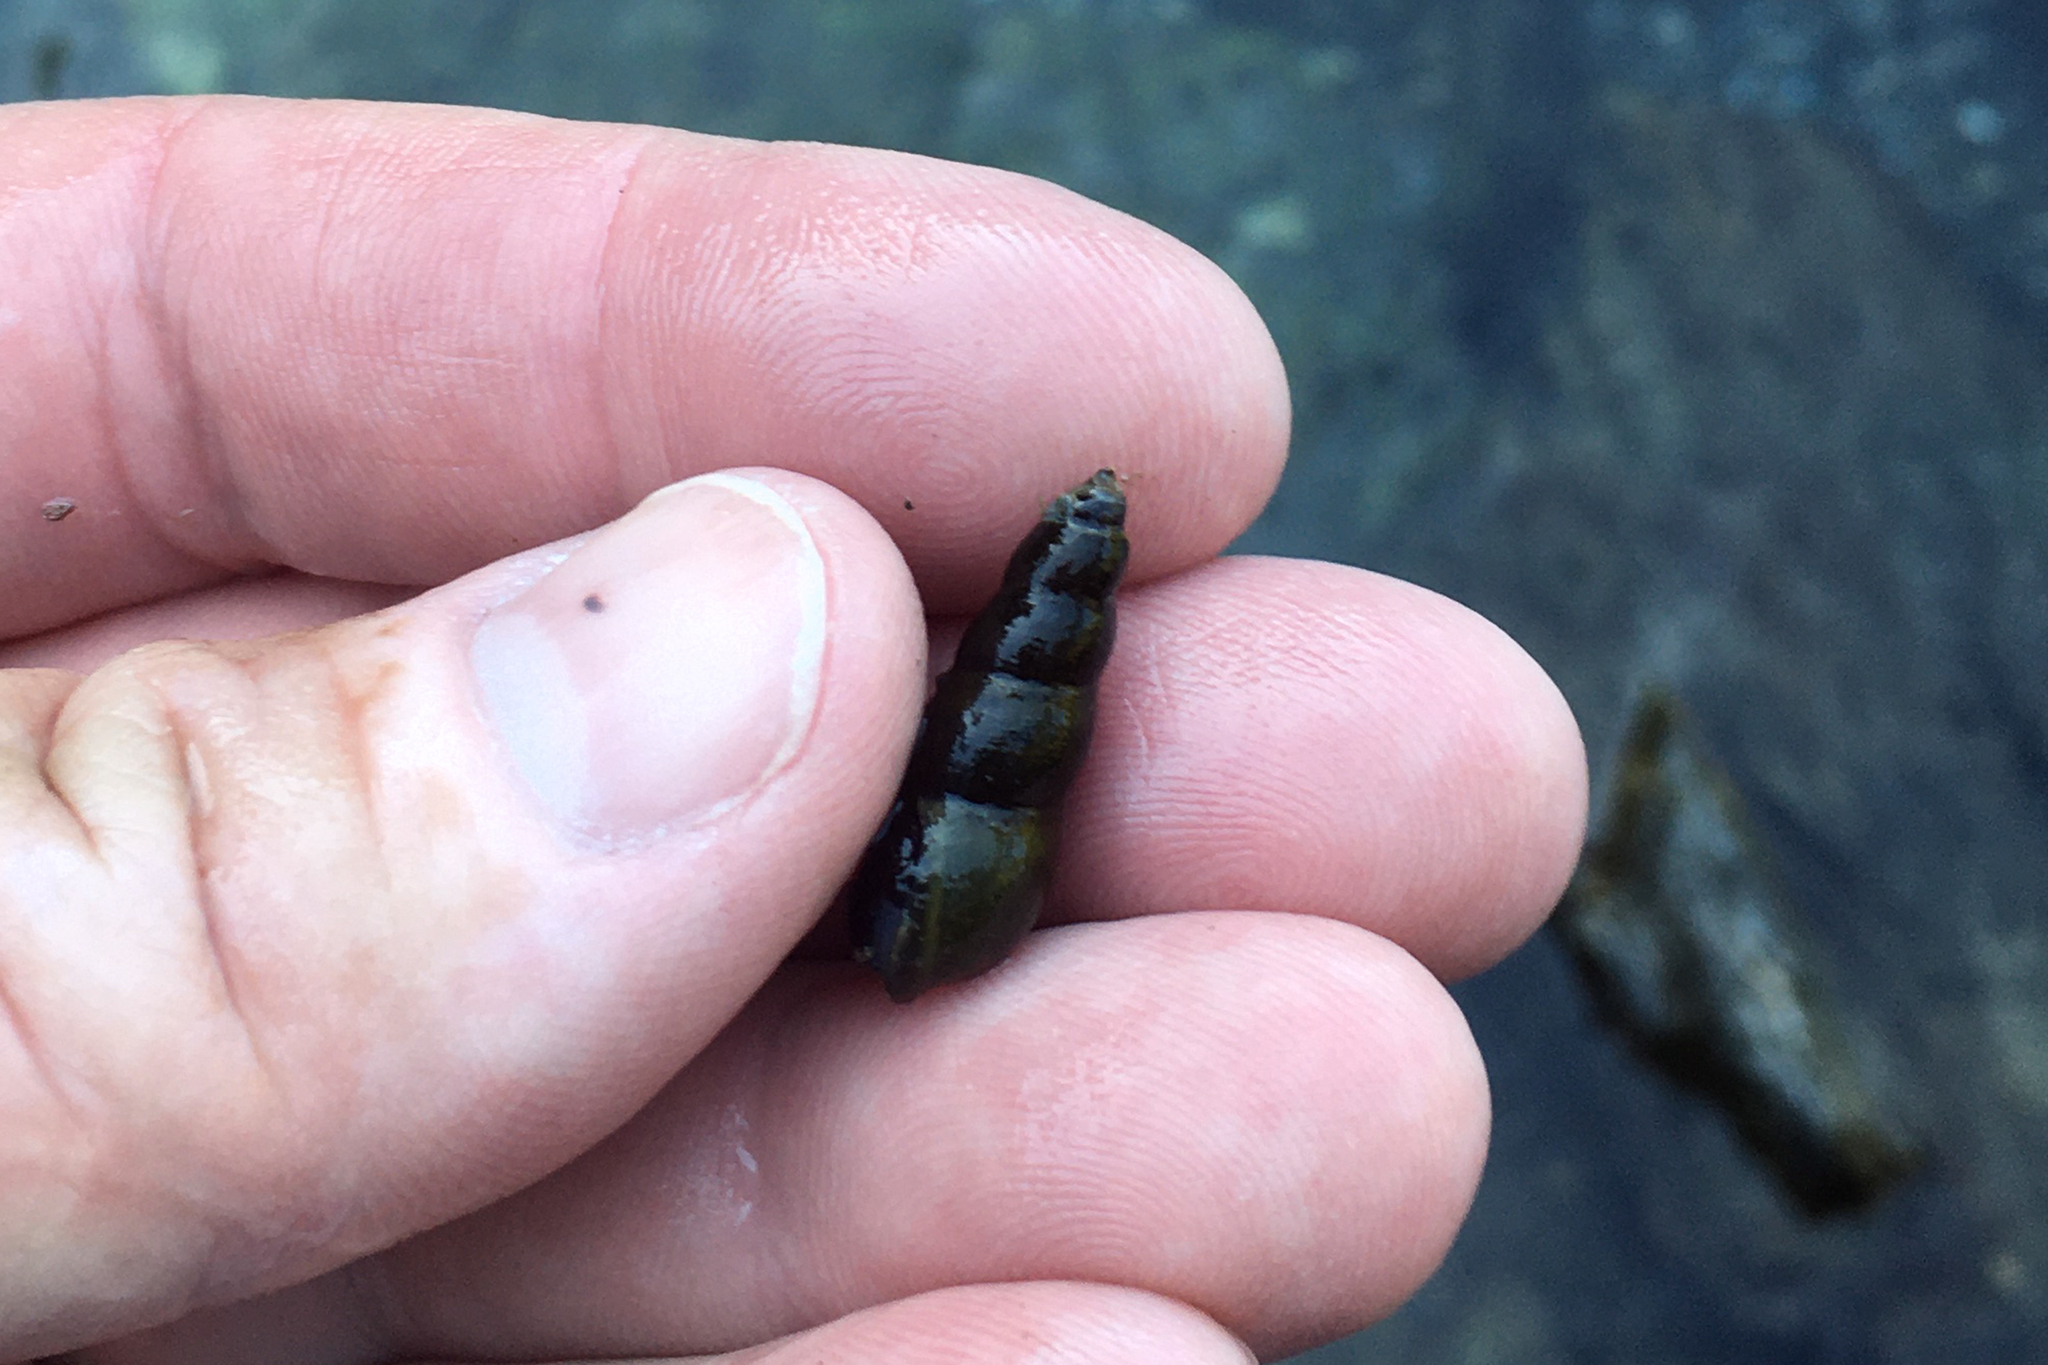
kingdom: Animalia
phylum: Mollusca
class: Gastropoda
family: Semisulcospiridae
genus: Juga
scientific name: Juga nigrina
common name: Black juga
